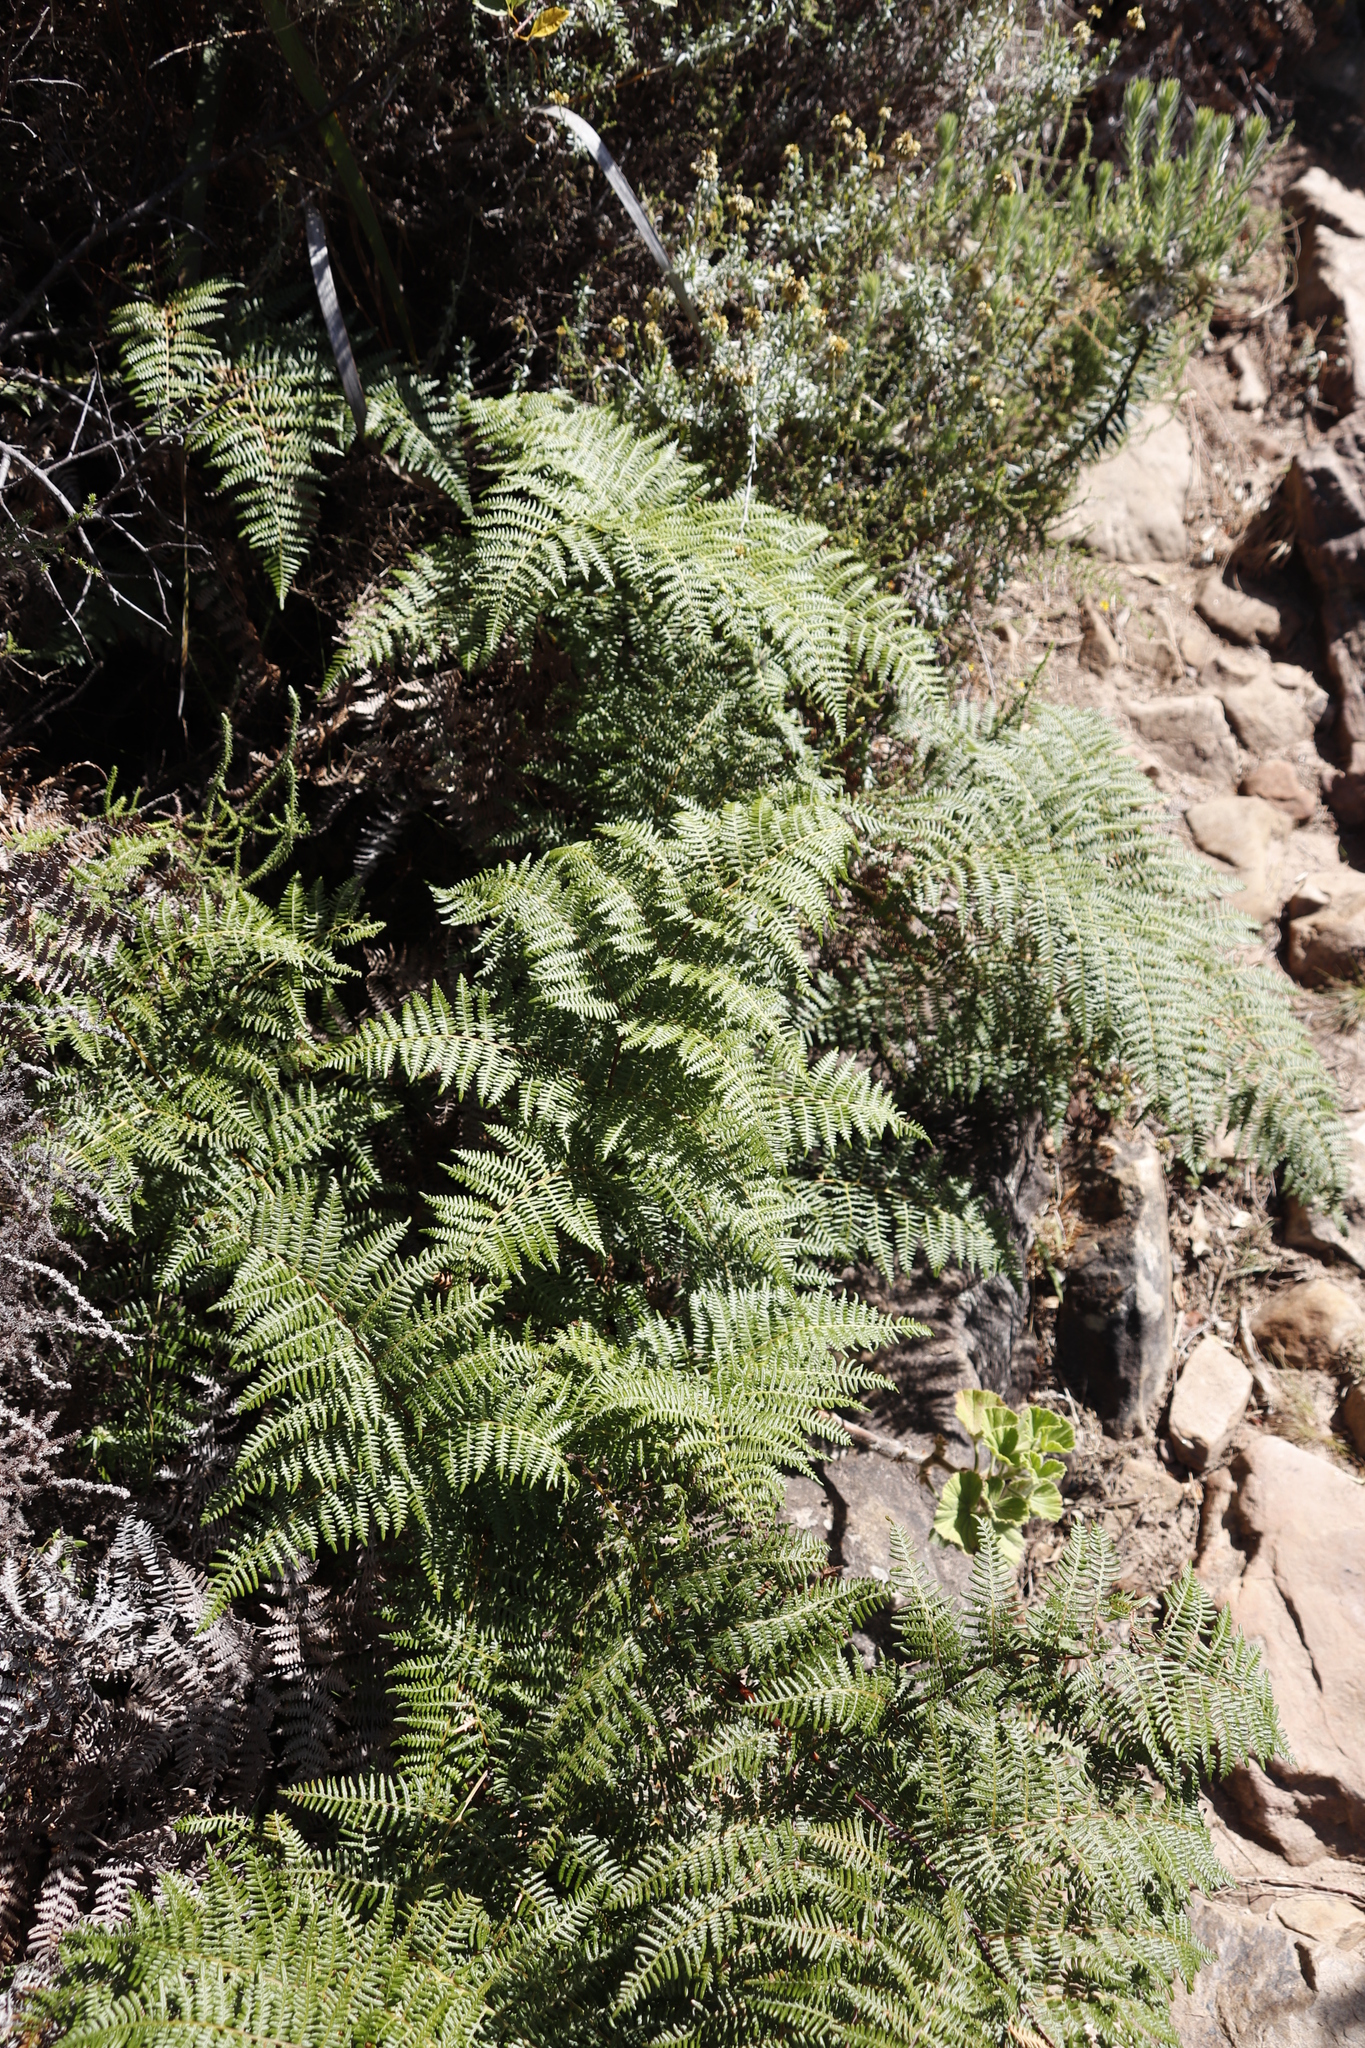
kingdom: Plantae
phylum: Tracheophyta
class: Polypodiopsida
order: Polypodiales
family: Dennstaedtiaceae
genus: Pteridium
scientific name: Pteridium aquilinum
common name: Bracken
